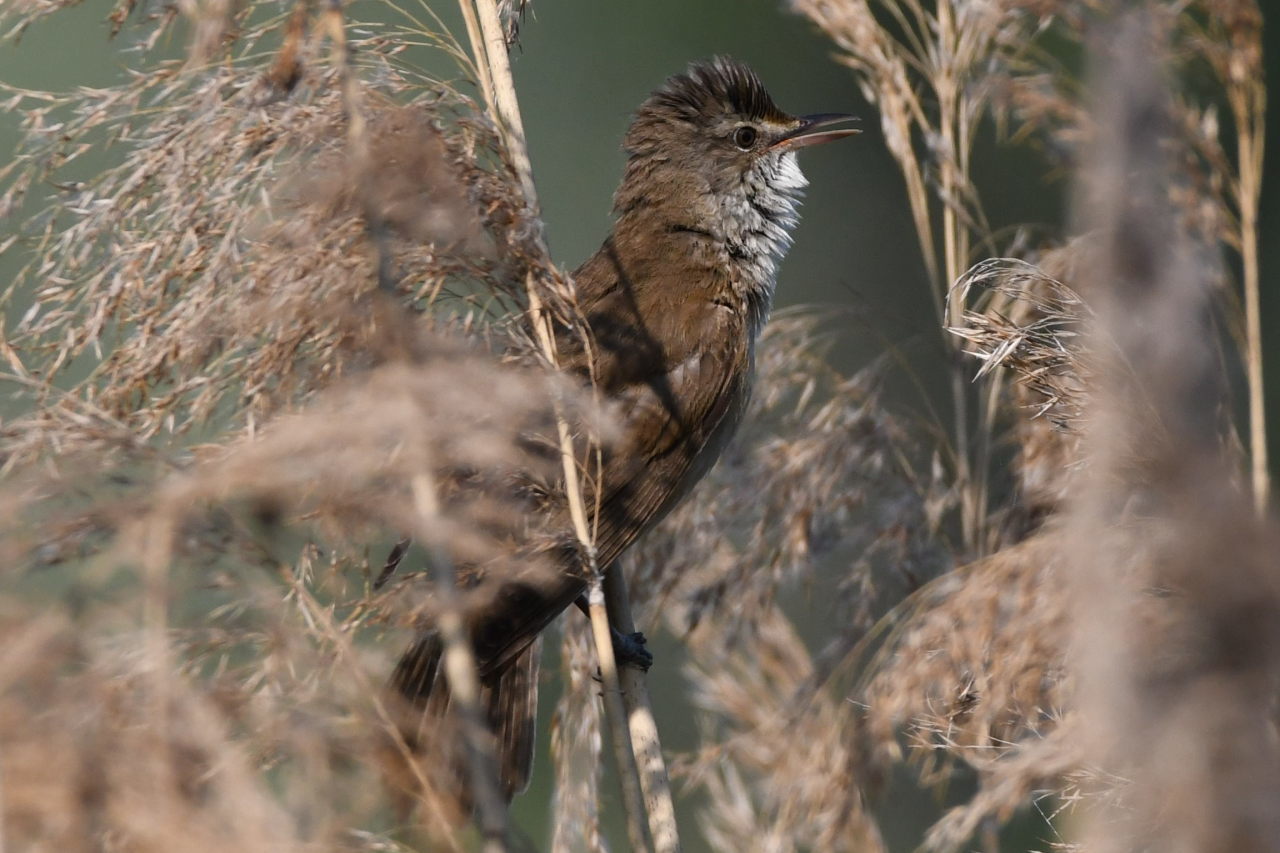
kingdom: Animalia
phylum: Chordata
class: Aves
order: Passeriformes
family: Acrocephalidae
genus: Acrocephalus
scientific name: Acrocephalus arundinaceus
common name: Great reed warbler
